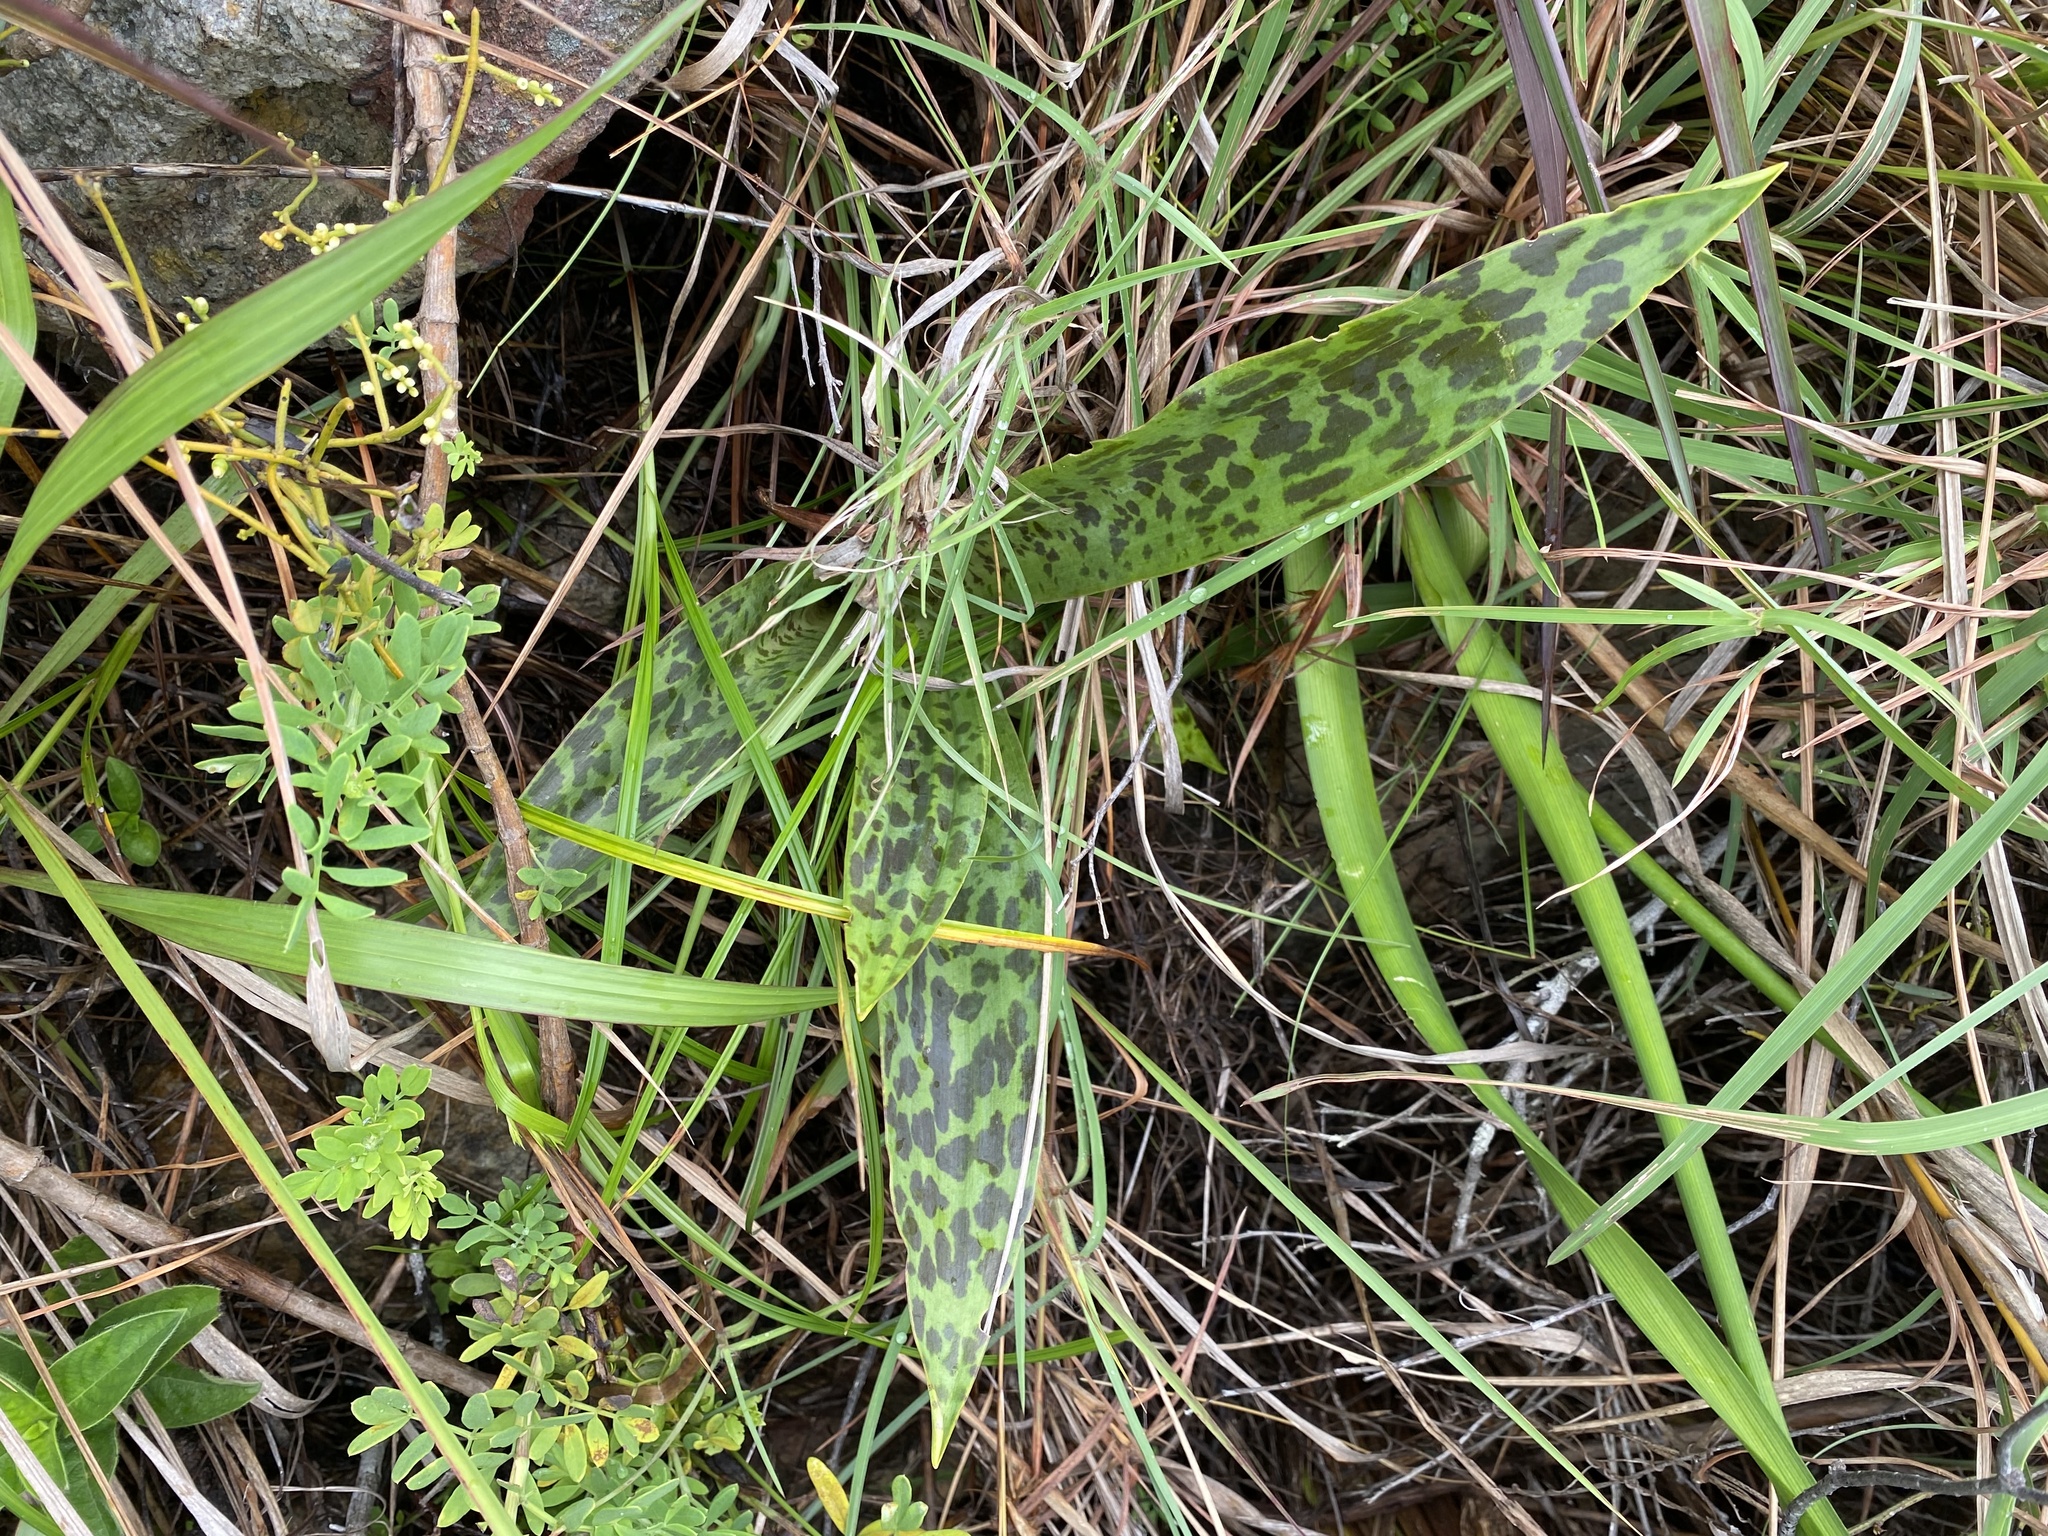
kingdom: Plantae
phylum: Tracheophyta
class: Liliopsida
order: Asparagales
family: Asparagaceae
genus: Ledebouria
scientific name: Ledebouria asperifolia
